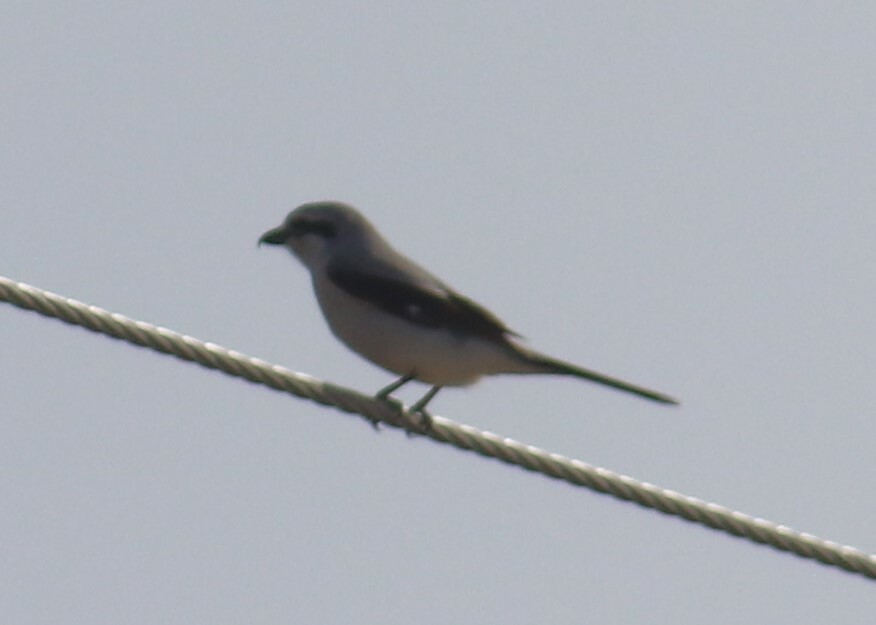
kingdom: Animalia
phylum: Chordata
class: Aves
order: Passeriformes
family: Laniidae
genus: Lanius
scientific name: Lanius borealis
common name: Northern shrike
